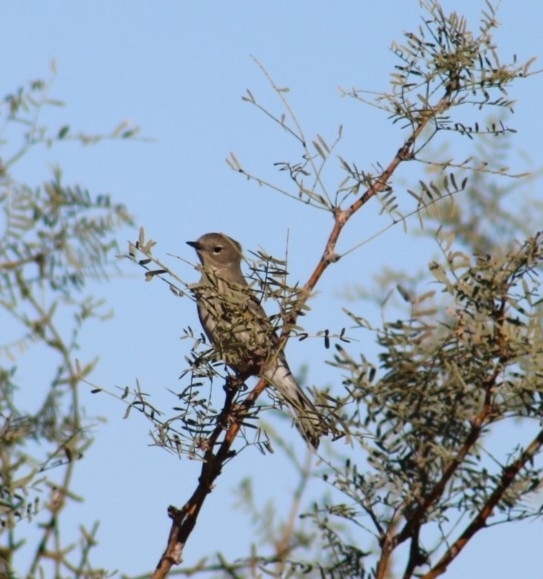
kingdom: Animalia
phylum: Chordata
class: Aves
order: Passeriformes
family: Parulidae
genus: Setophaga
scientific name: Setophaga coronata
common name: Myrtle warbler
